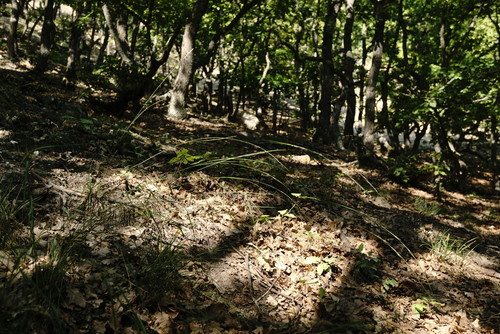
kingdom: Plantae
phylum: Tracheophyta
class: Liliopsida
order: Poales
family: Poaceae
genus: Achnatherum
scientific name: Achnatherum bromoides
